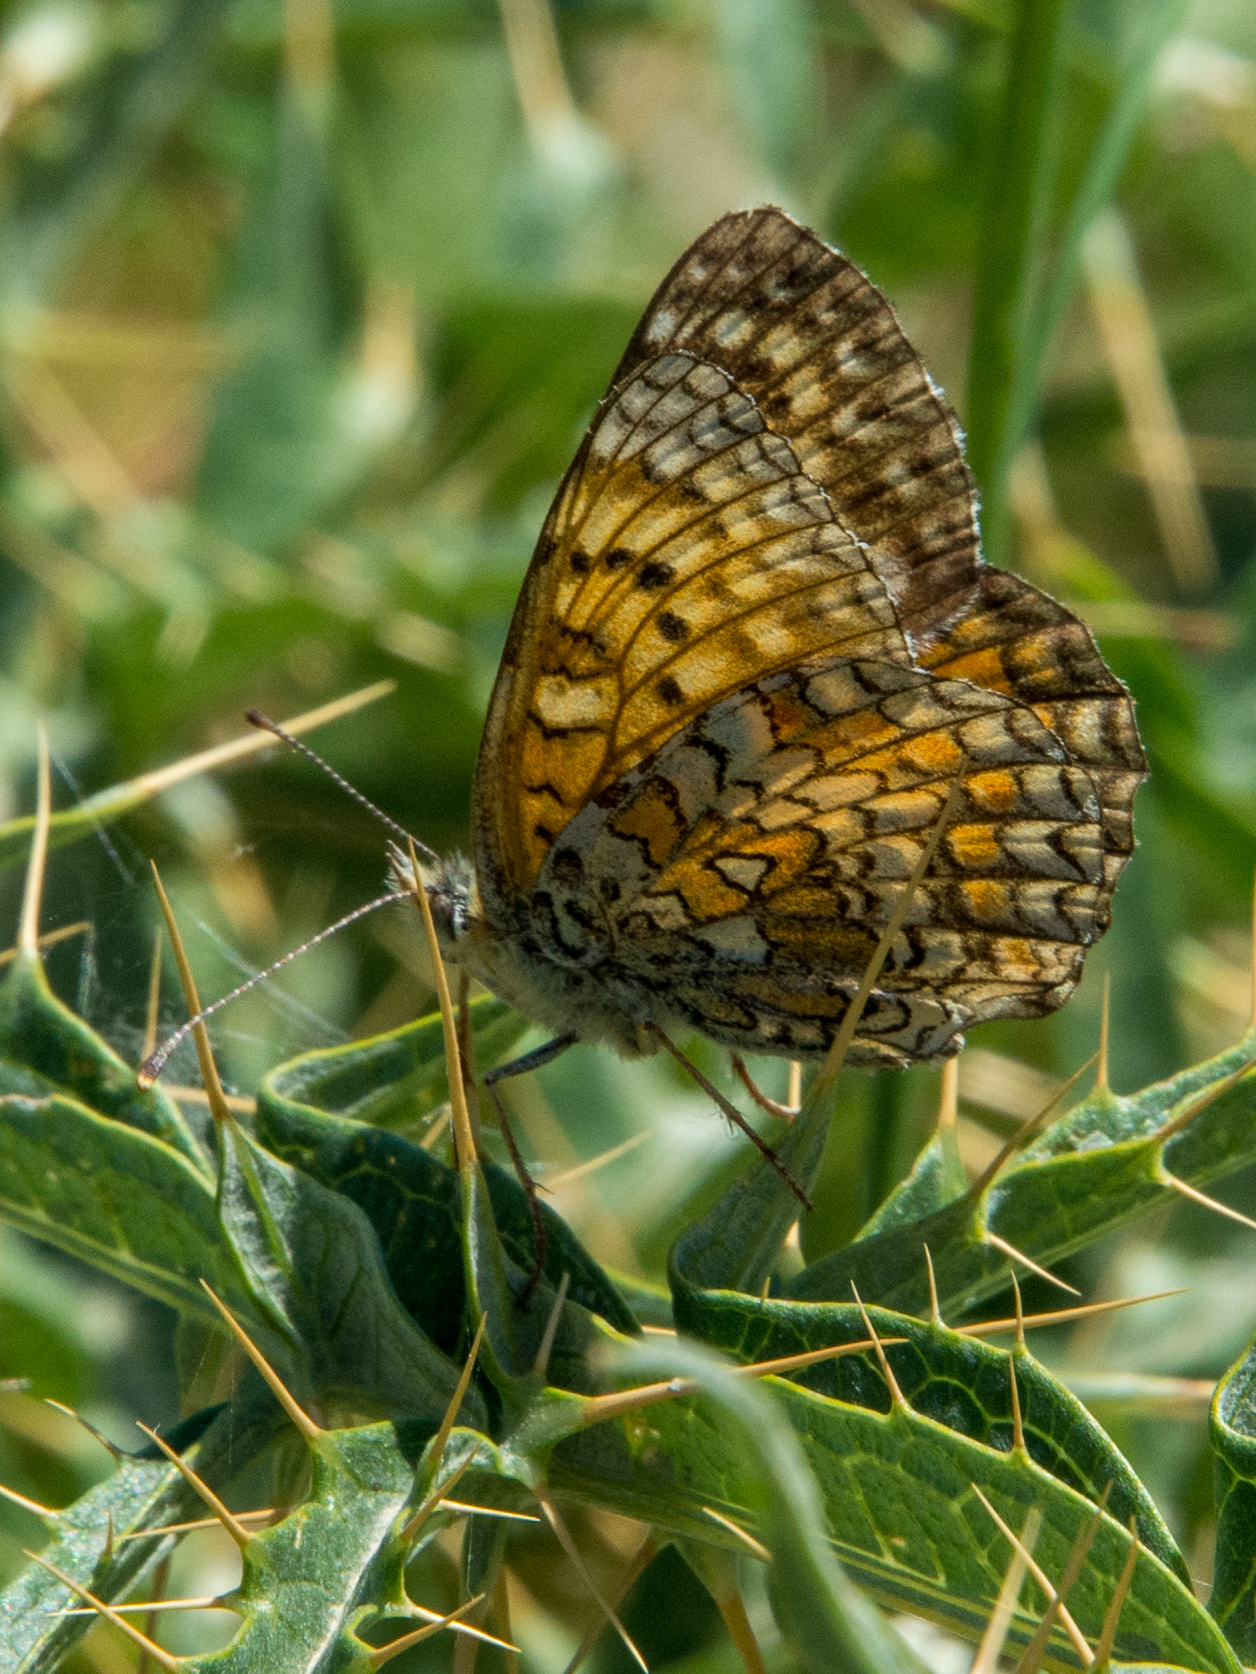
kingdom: Animalia
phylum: Arthropoda
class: Insecta
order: Lepidoptera
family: Nymphalidae
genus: Melitaea
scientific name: Melitaea aetherie
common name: Aetherie fritillary
